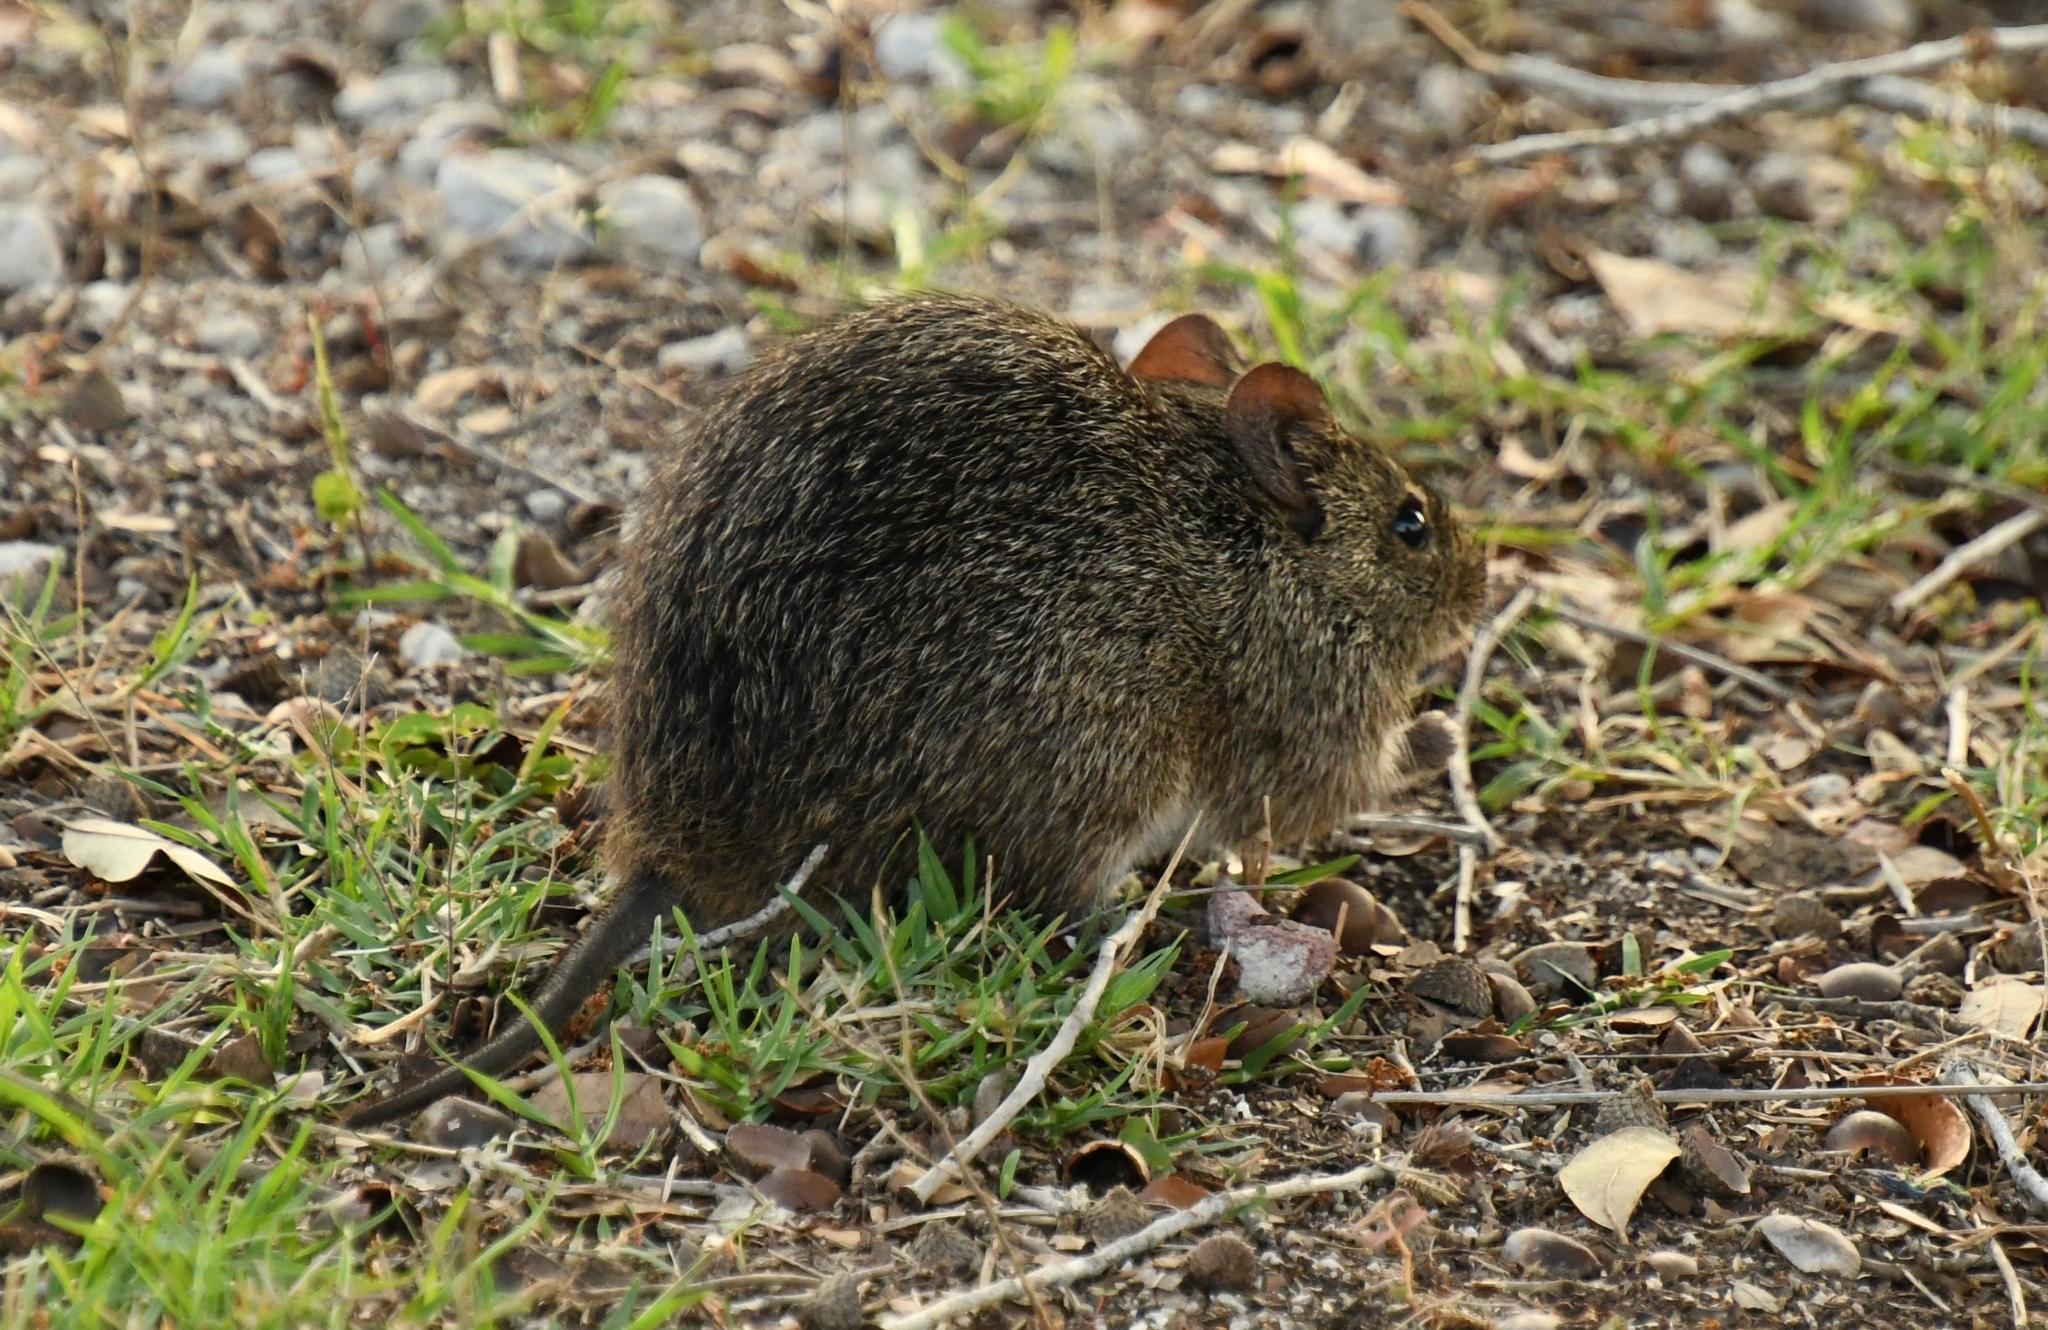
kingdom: Animalia
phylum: Chordata
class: Mammalia
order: Rodentia
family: Cricetidae
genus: Sigmodon
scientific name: Sigmodon hispidus
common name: Hispid cotton rat
